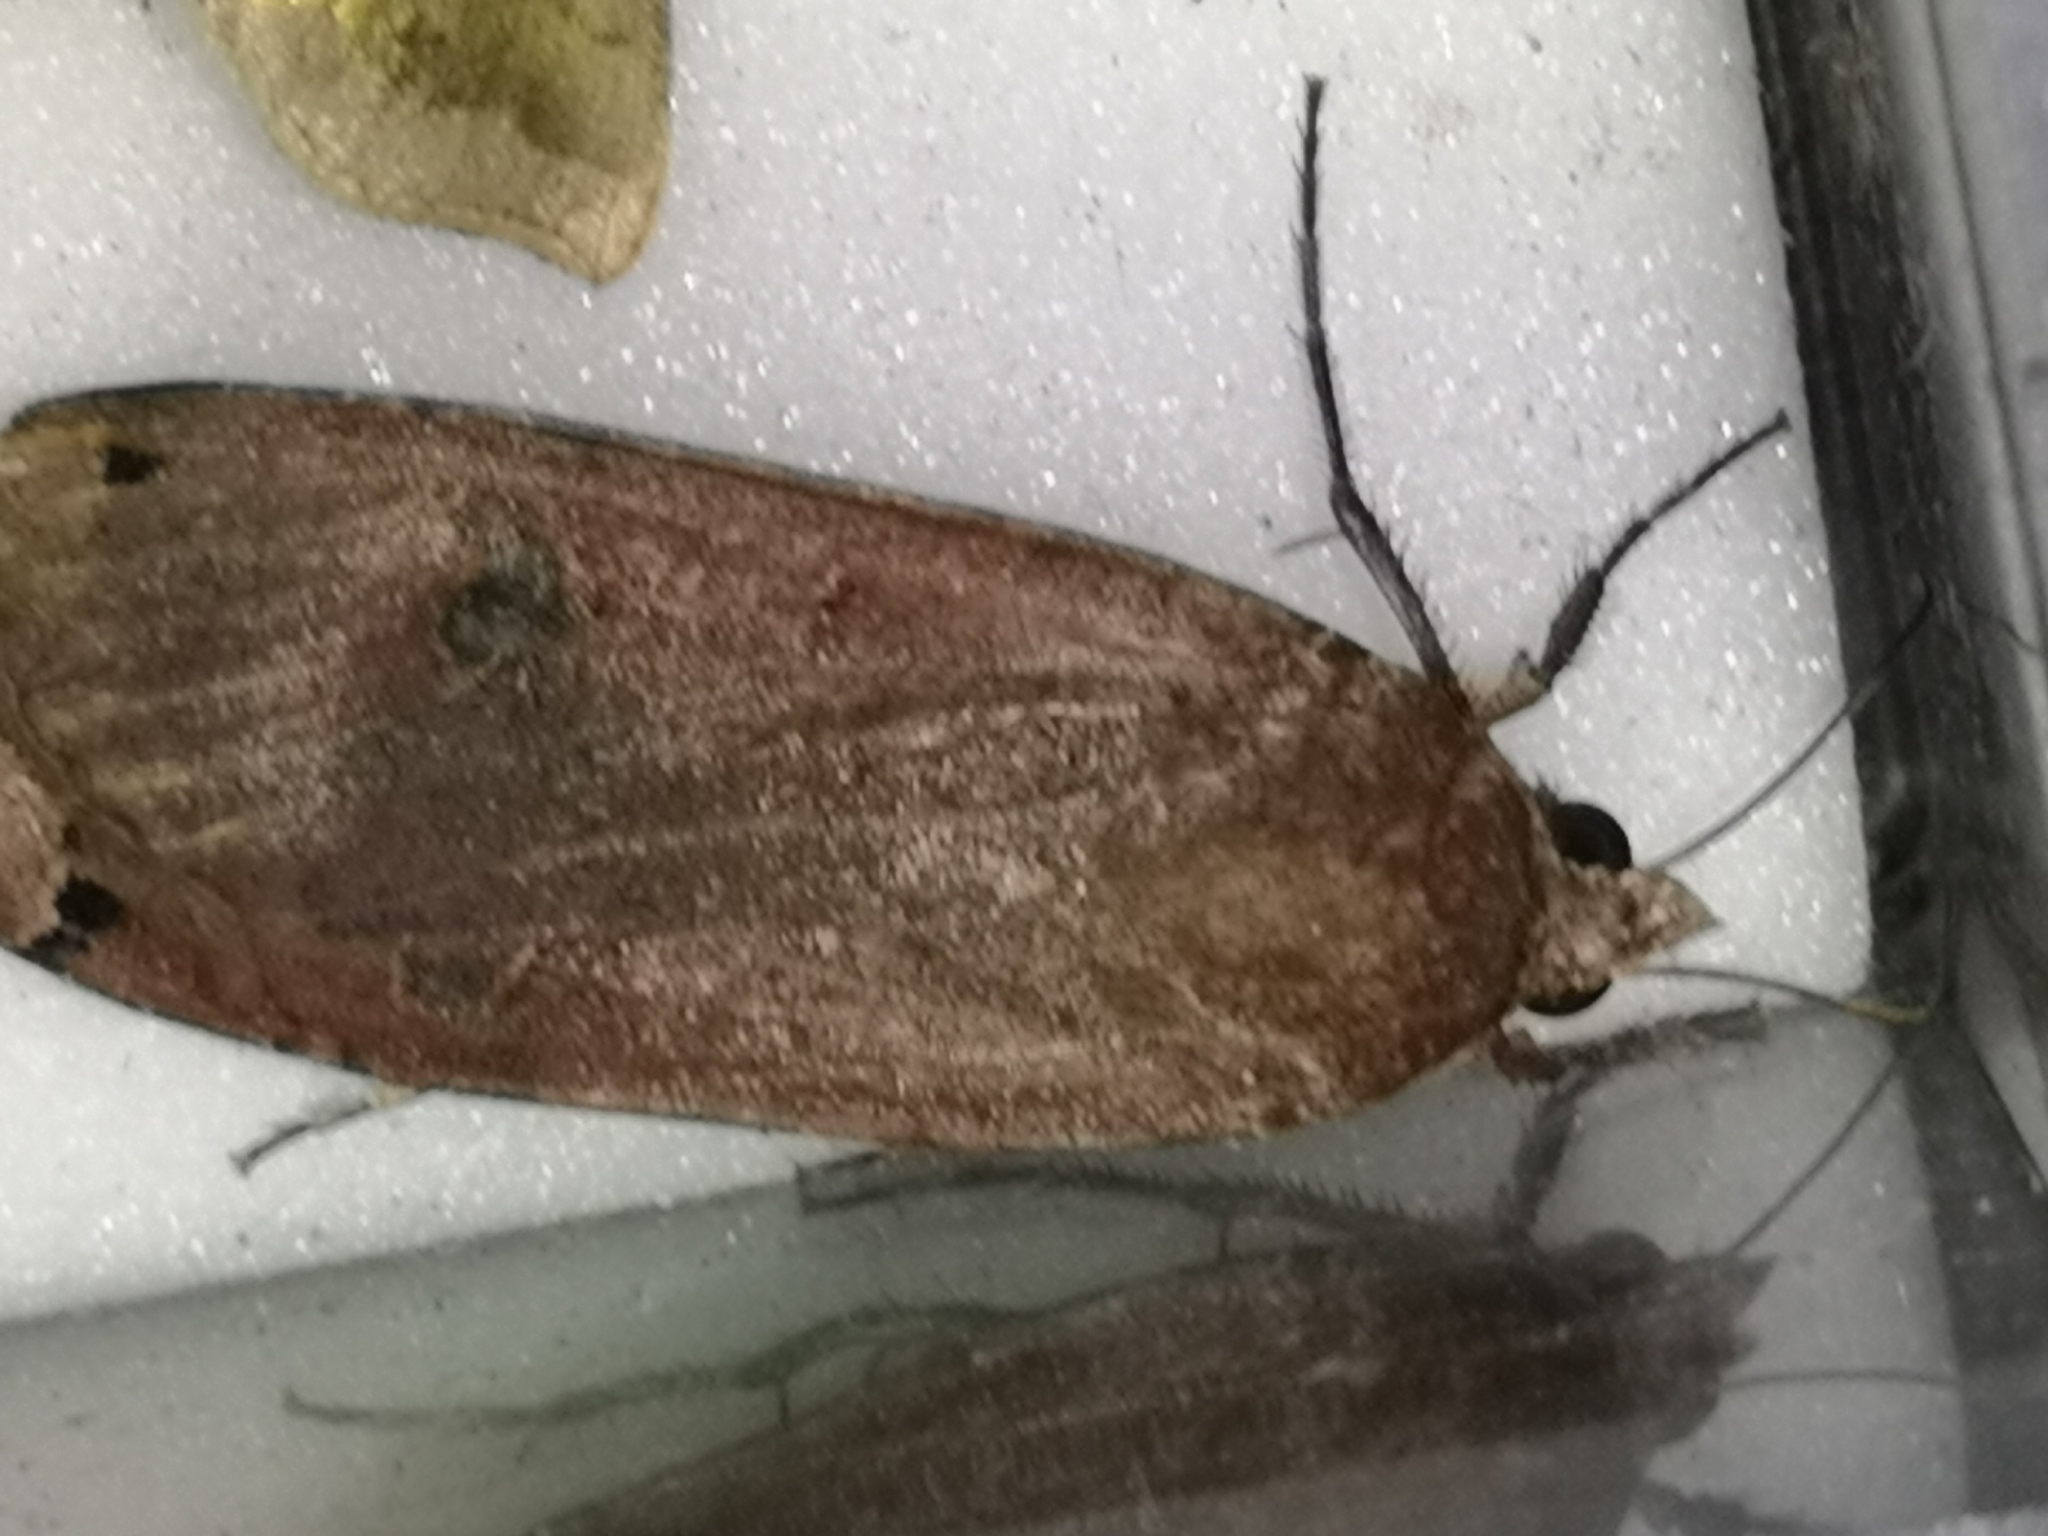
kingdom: Animalia
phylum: Arthropoda
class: Insecta
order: Lepidoptera
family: Noctuidae
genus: Noctua
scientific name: Noctua pronuba
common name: Large yellow underwing
